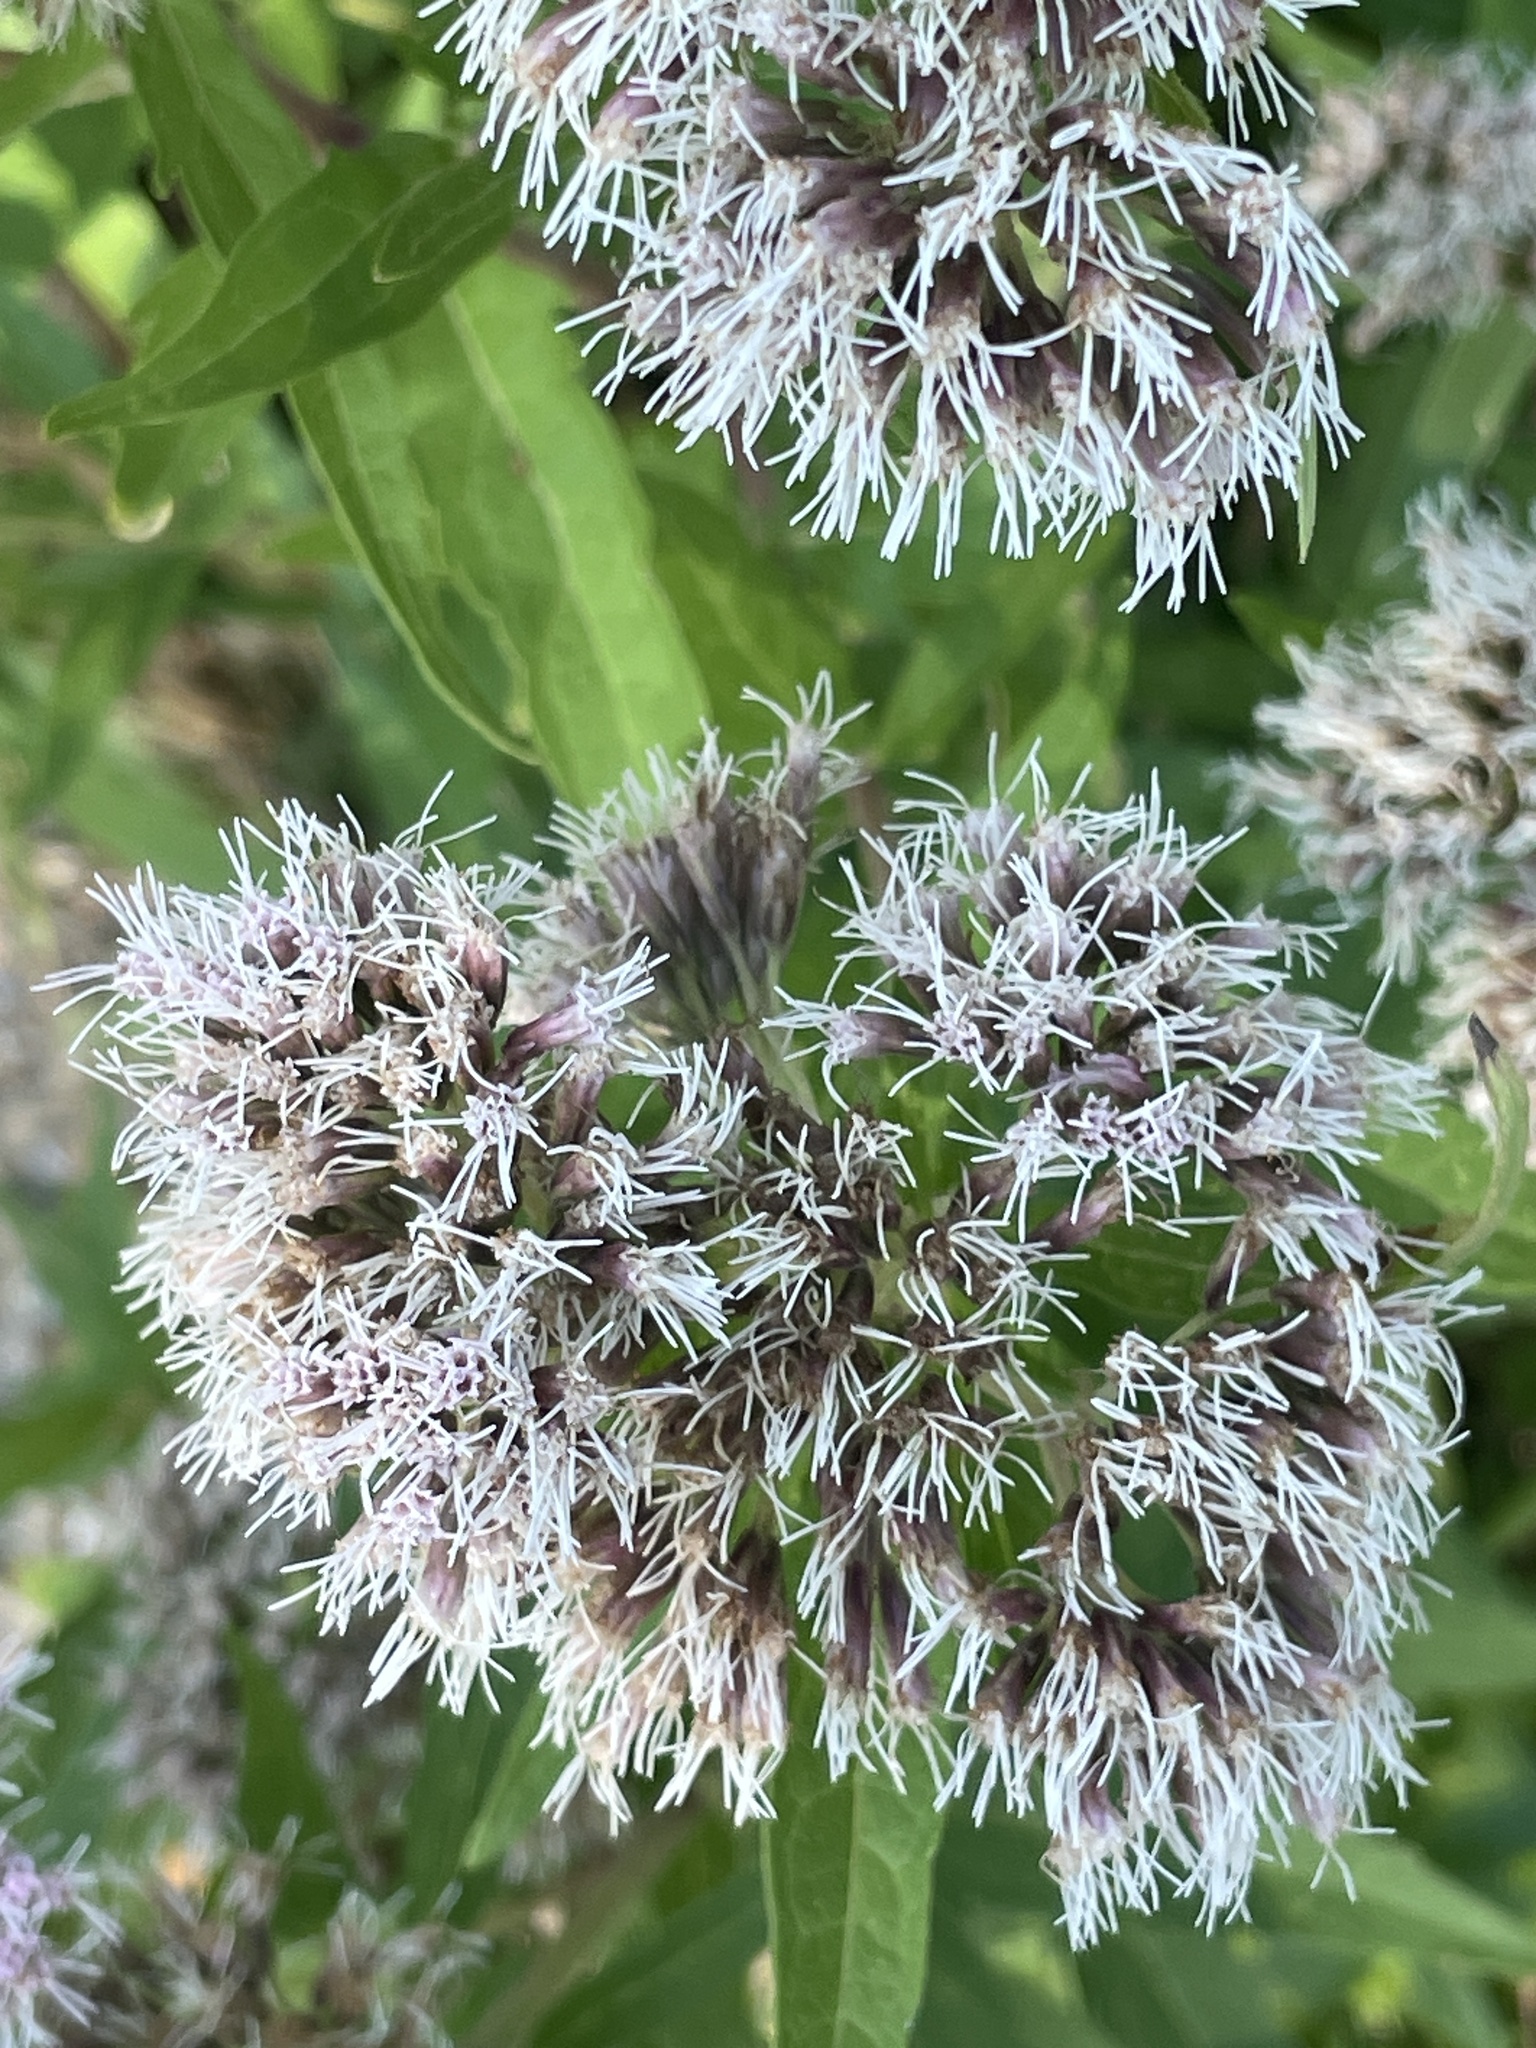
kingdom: Plantae
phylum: Tracheophyta
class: Magnoliopsida
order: Asterales
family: Asteraceae
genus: Eupatorium
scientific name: Eupatorium cannabinum
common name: Hemp-agrimony
